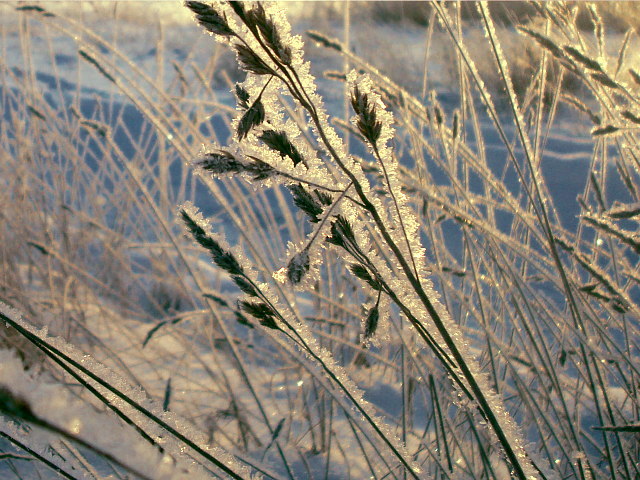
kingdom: Plantae
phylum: Tracheophyta
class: Liliopsida
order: Poales
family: Poaceae
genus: Dactylis
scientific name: Dactylis glomerata
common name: Orchardgrass
